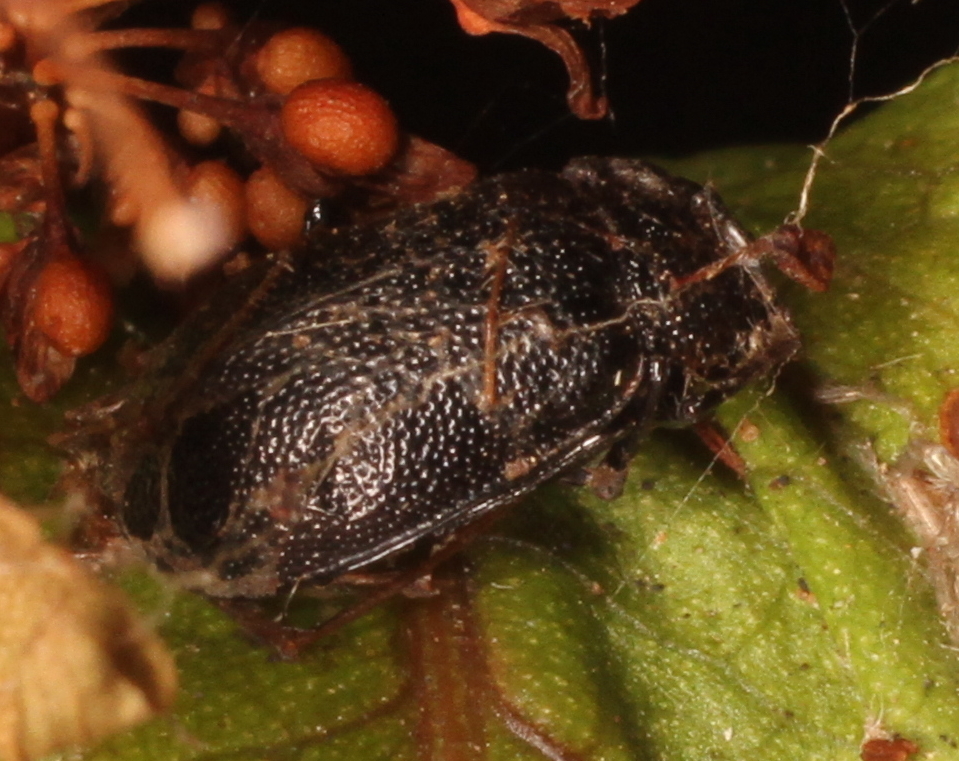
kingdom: Animalia
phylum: Arthropoda
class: Insecta
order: Coleoptera
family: Chrysomelidae
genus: Galeruca
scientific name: Galeruca tanaceti
